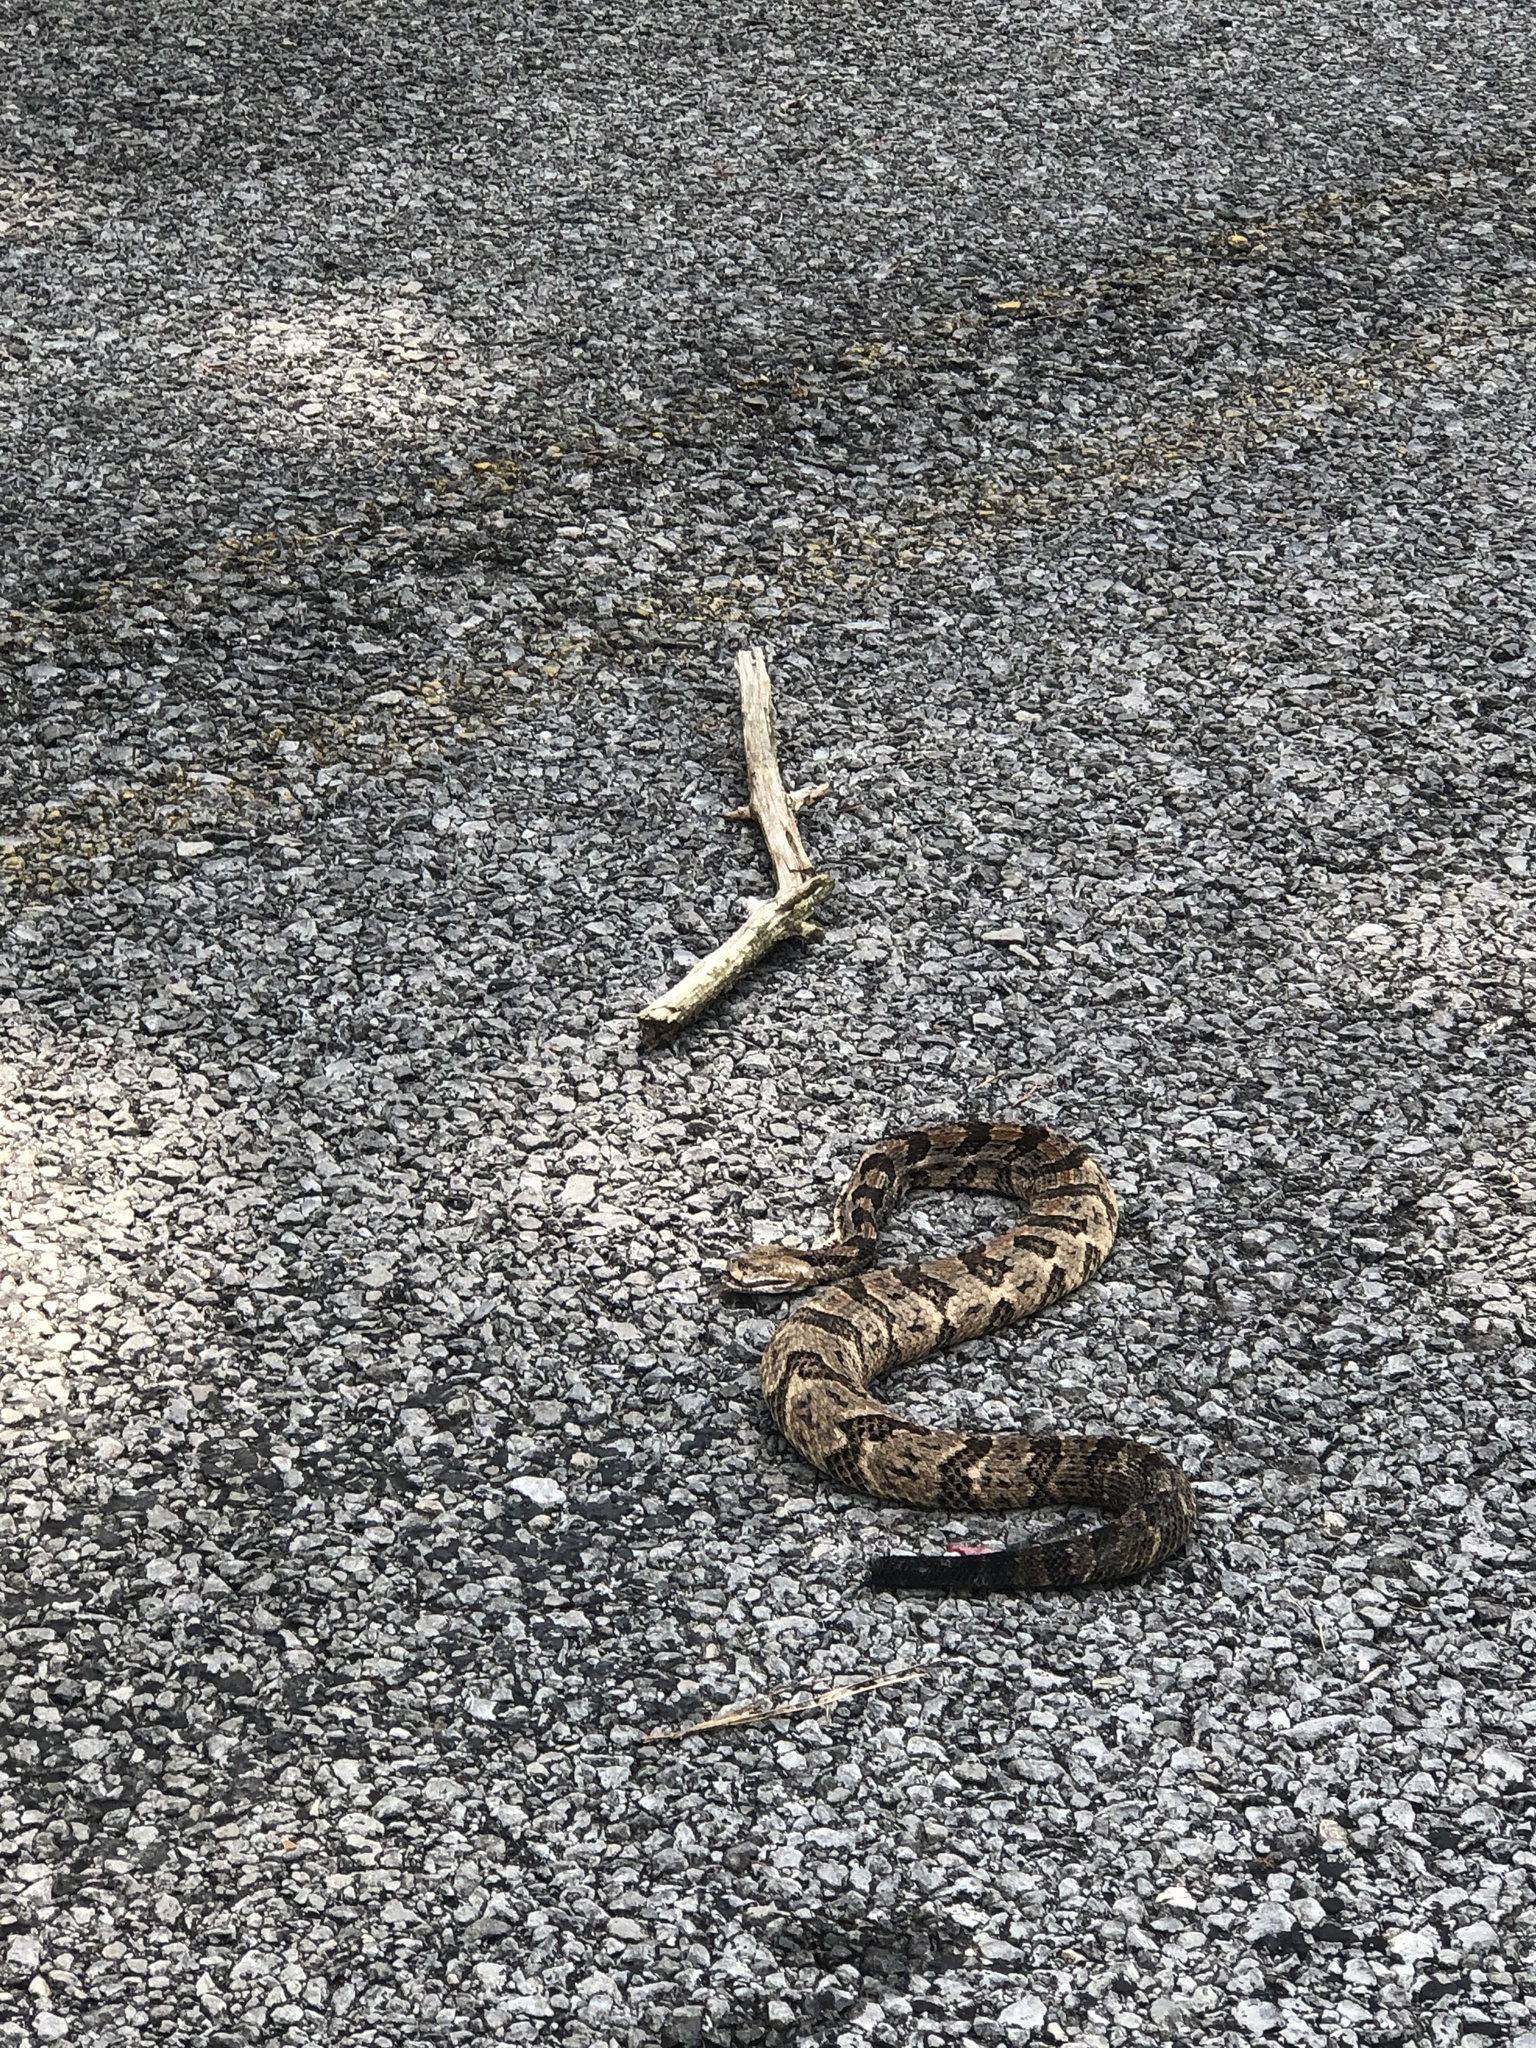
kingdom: Animalia
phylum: Chordata
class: Squamata
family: Viperidae
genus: Crotalus
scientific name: Crotalus horridus
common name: Timber rattlesnake
